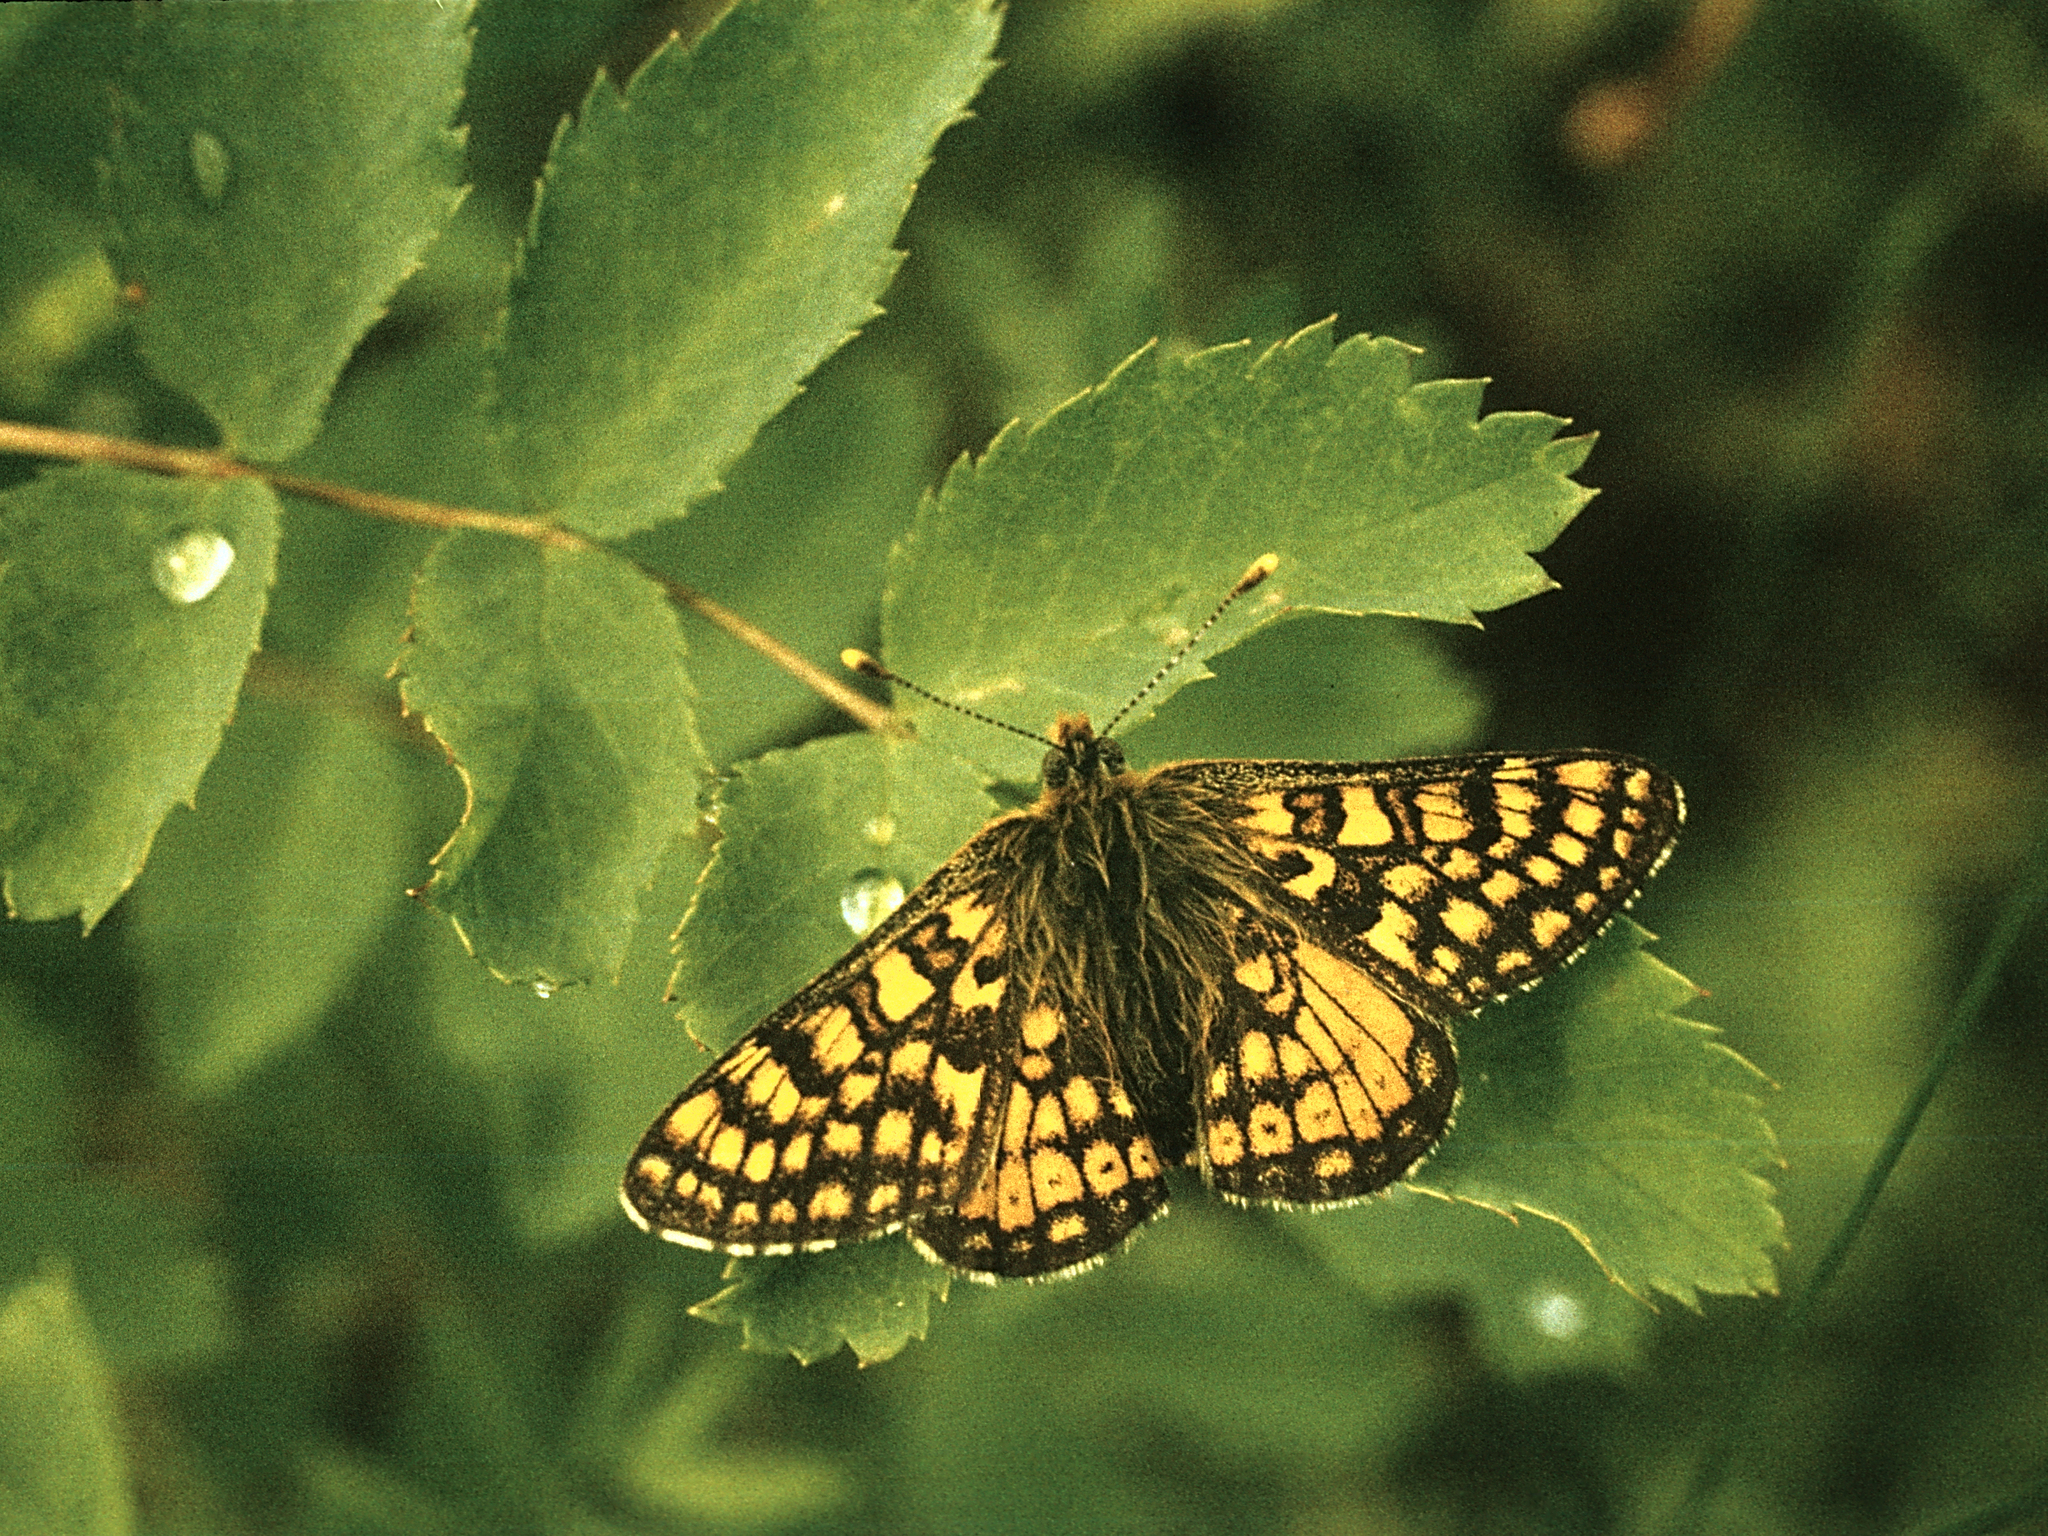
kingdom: Animalia
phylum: Arthropoda
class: Insecta
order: Lepidoptera
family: Nymphalidae
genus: Euphydryas
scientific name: Euphydryas asiatica
